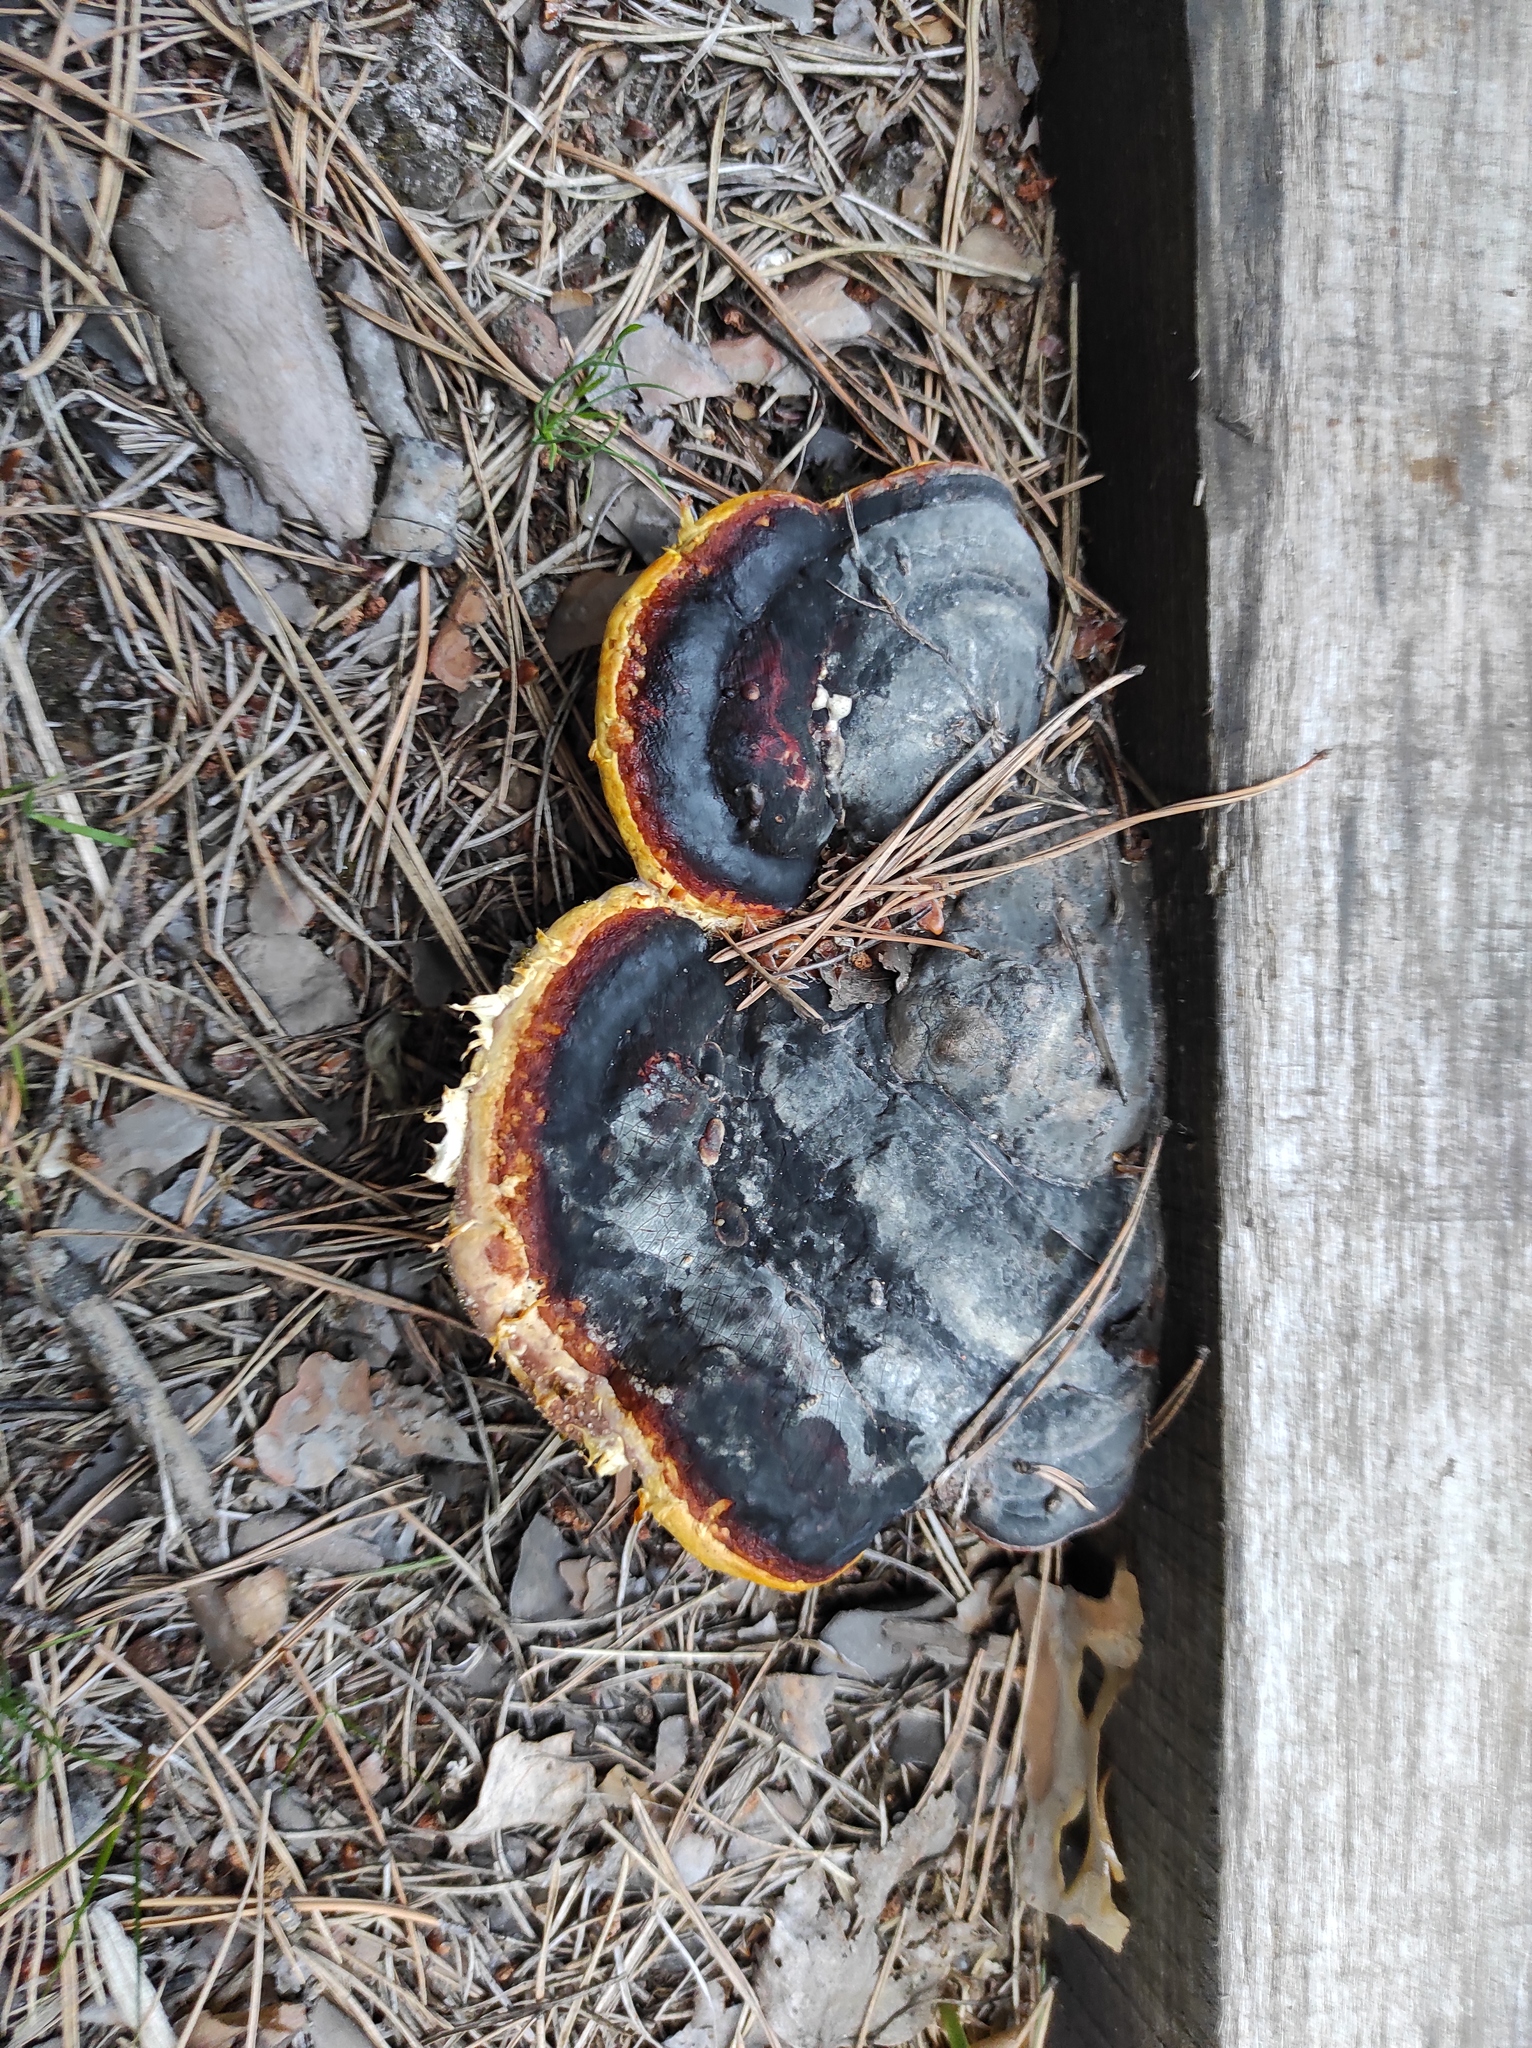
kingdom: Fungi
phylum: Basidiomycota
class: Agaricomycetes
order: Polyporales
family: Fomitopsidaceae
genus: Fomitopsis
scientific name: Fomitopsis pinicola
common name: Red-belted bracket
